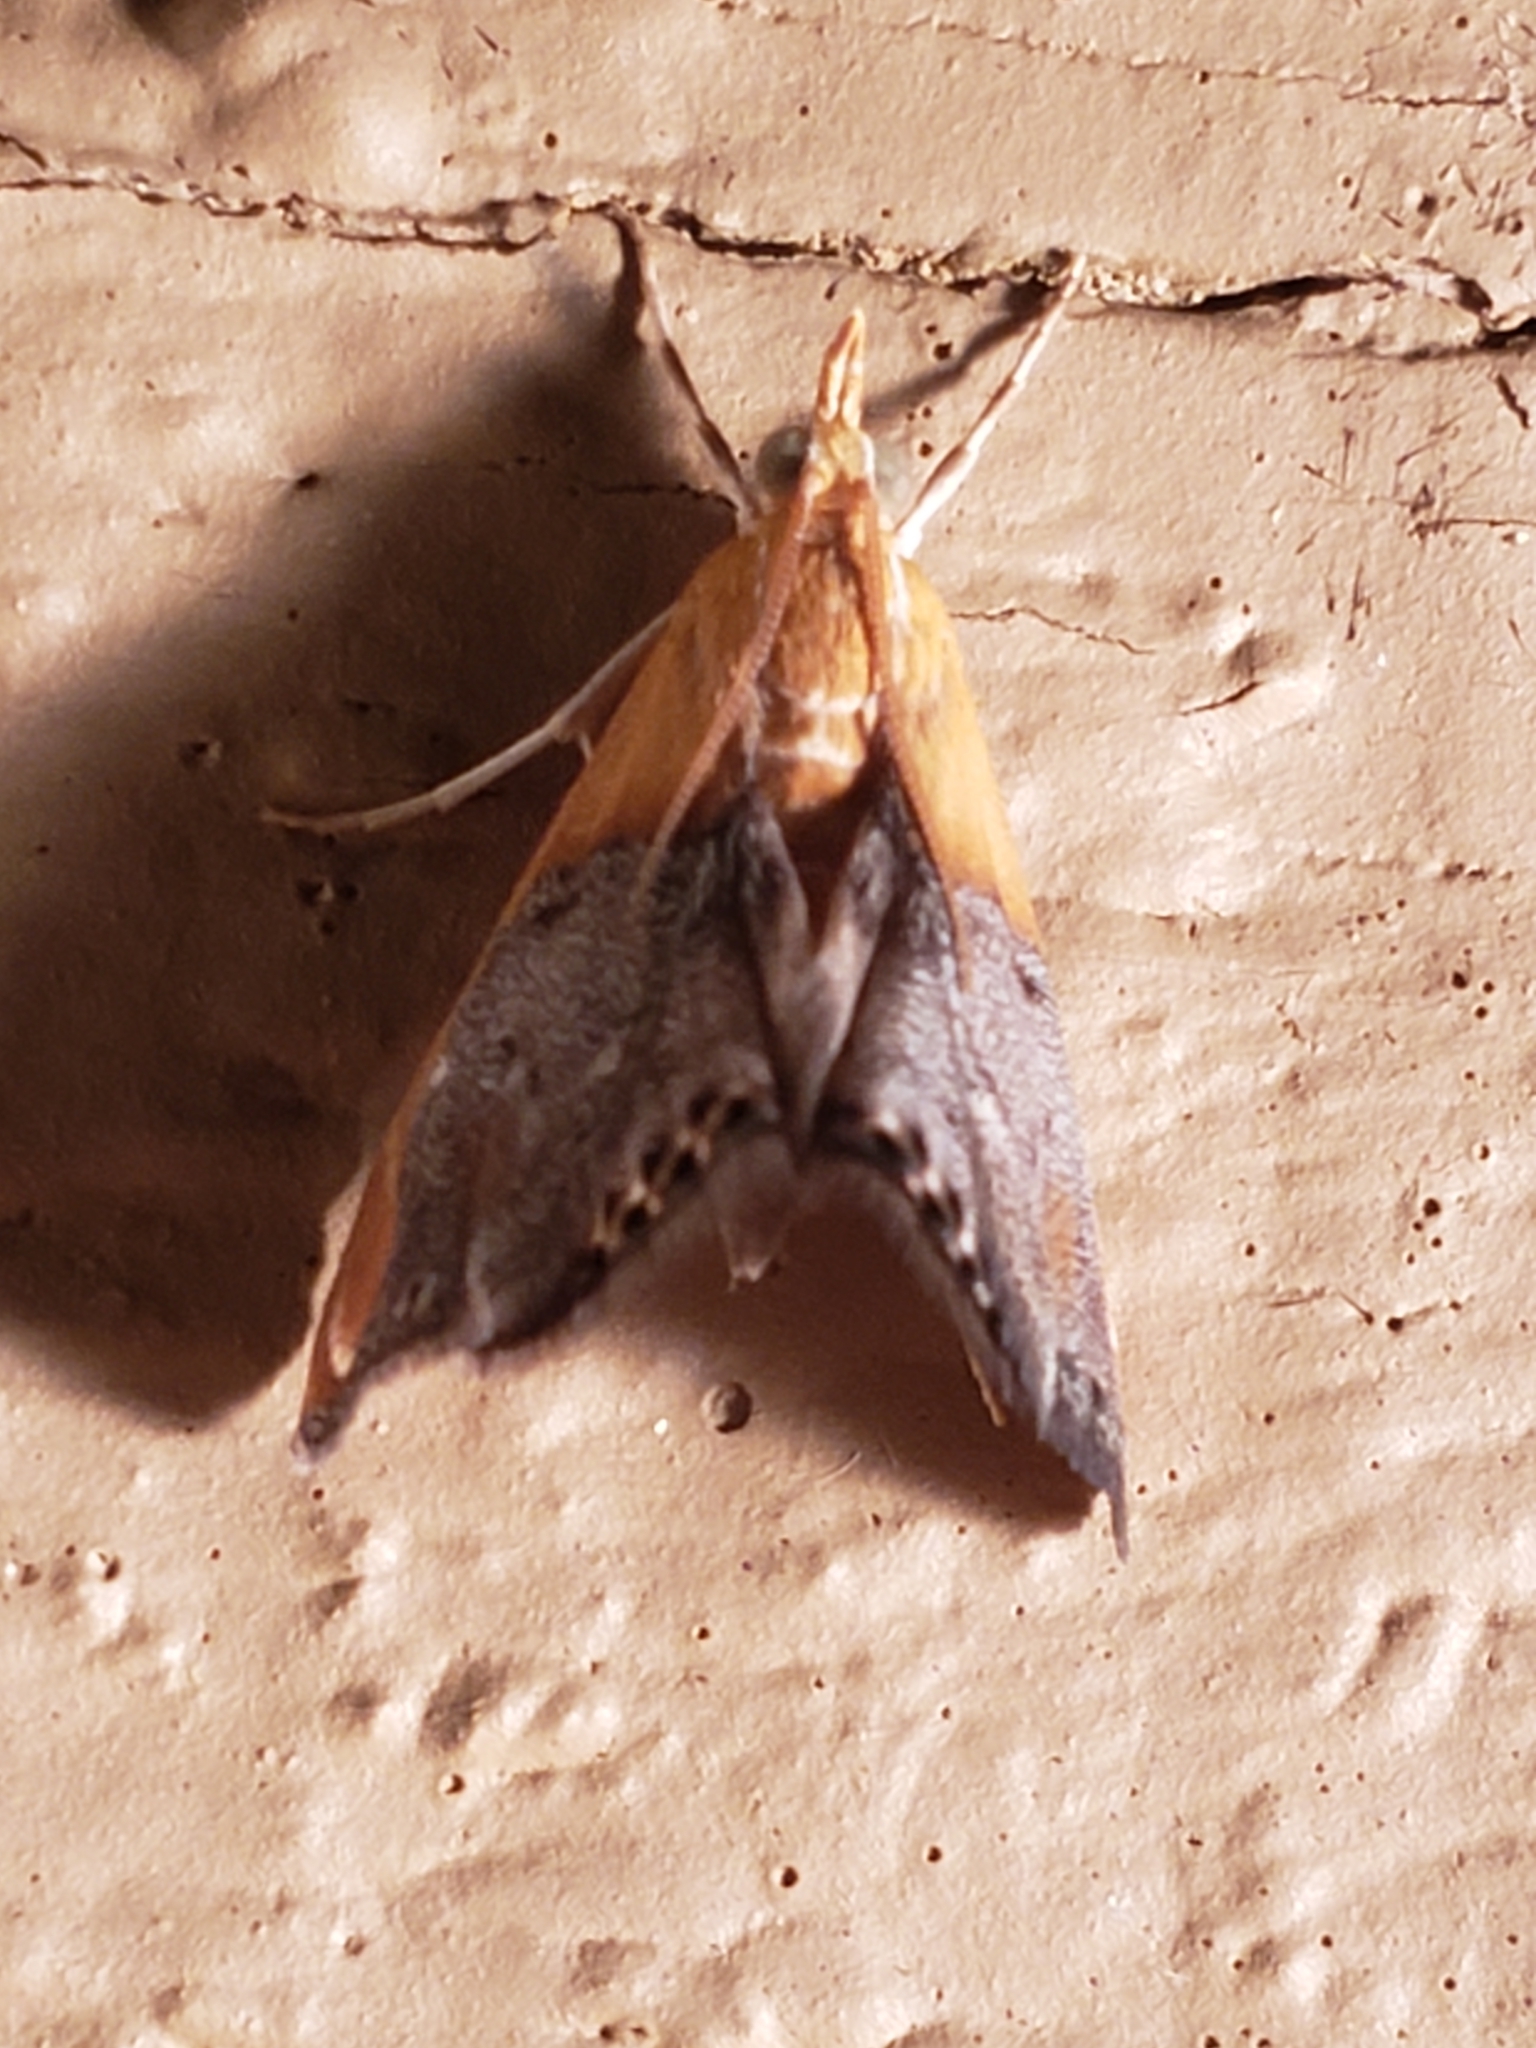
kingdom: Animalia
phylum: Arthropoda
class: Insecta
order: Lepidoptera
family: Crambidae
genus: Chalcoela
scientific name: Chalcoela iphitalis
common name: Sooty-winged chalcoela moth
